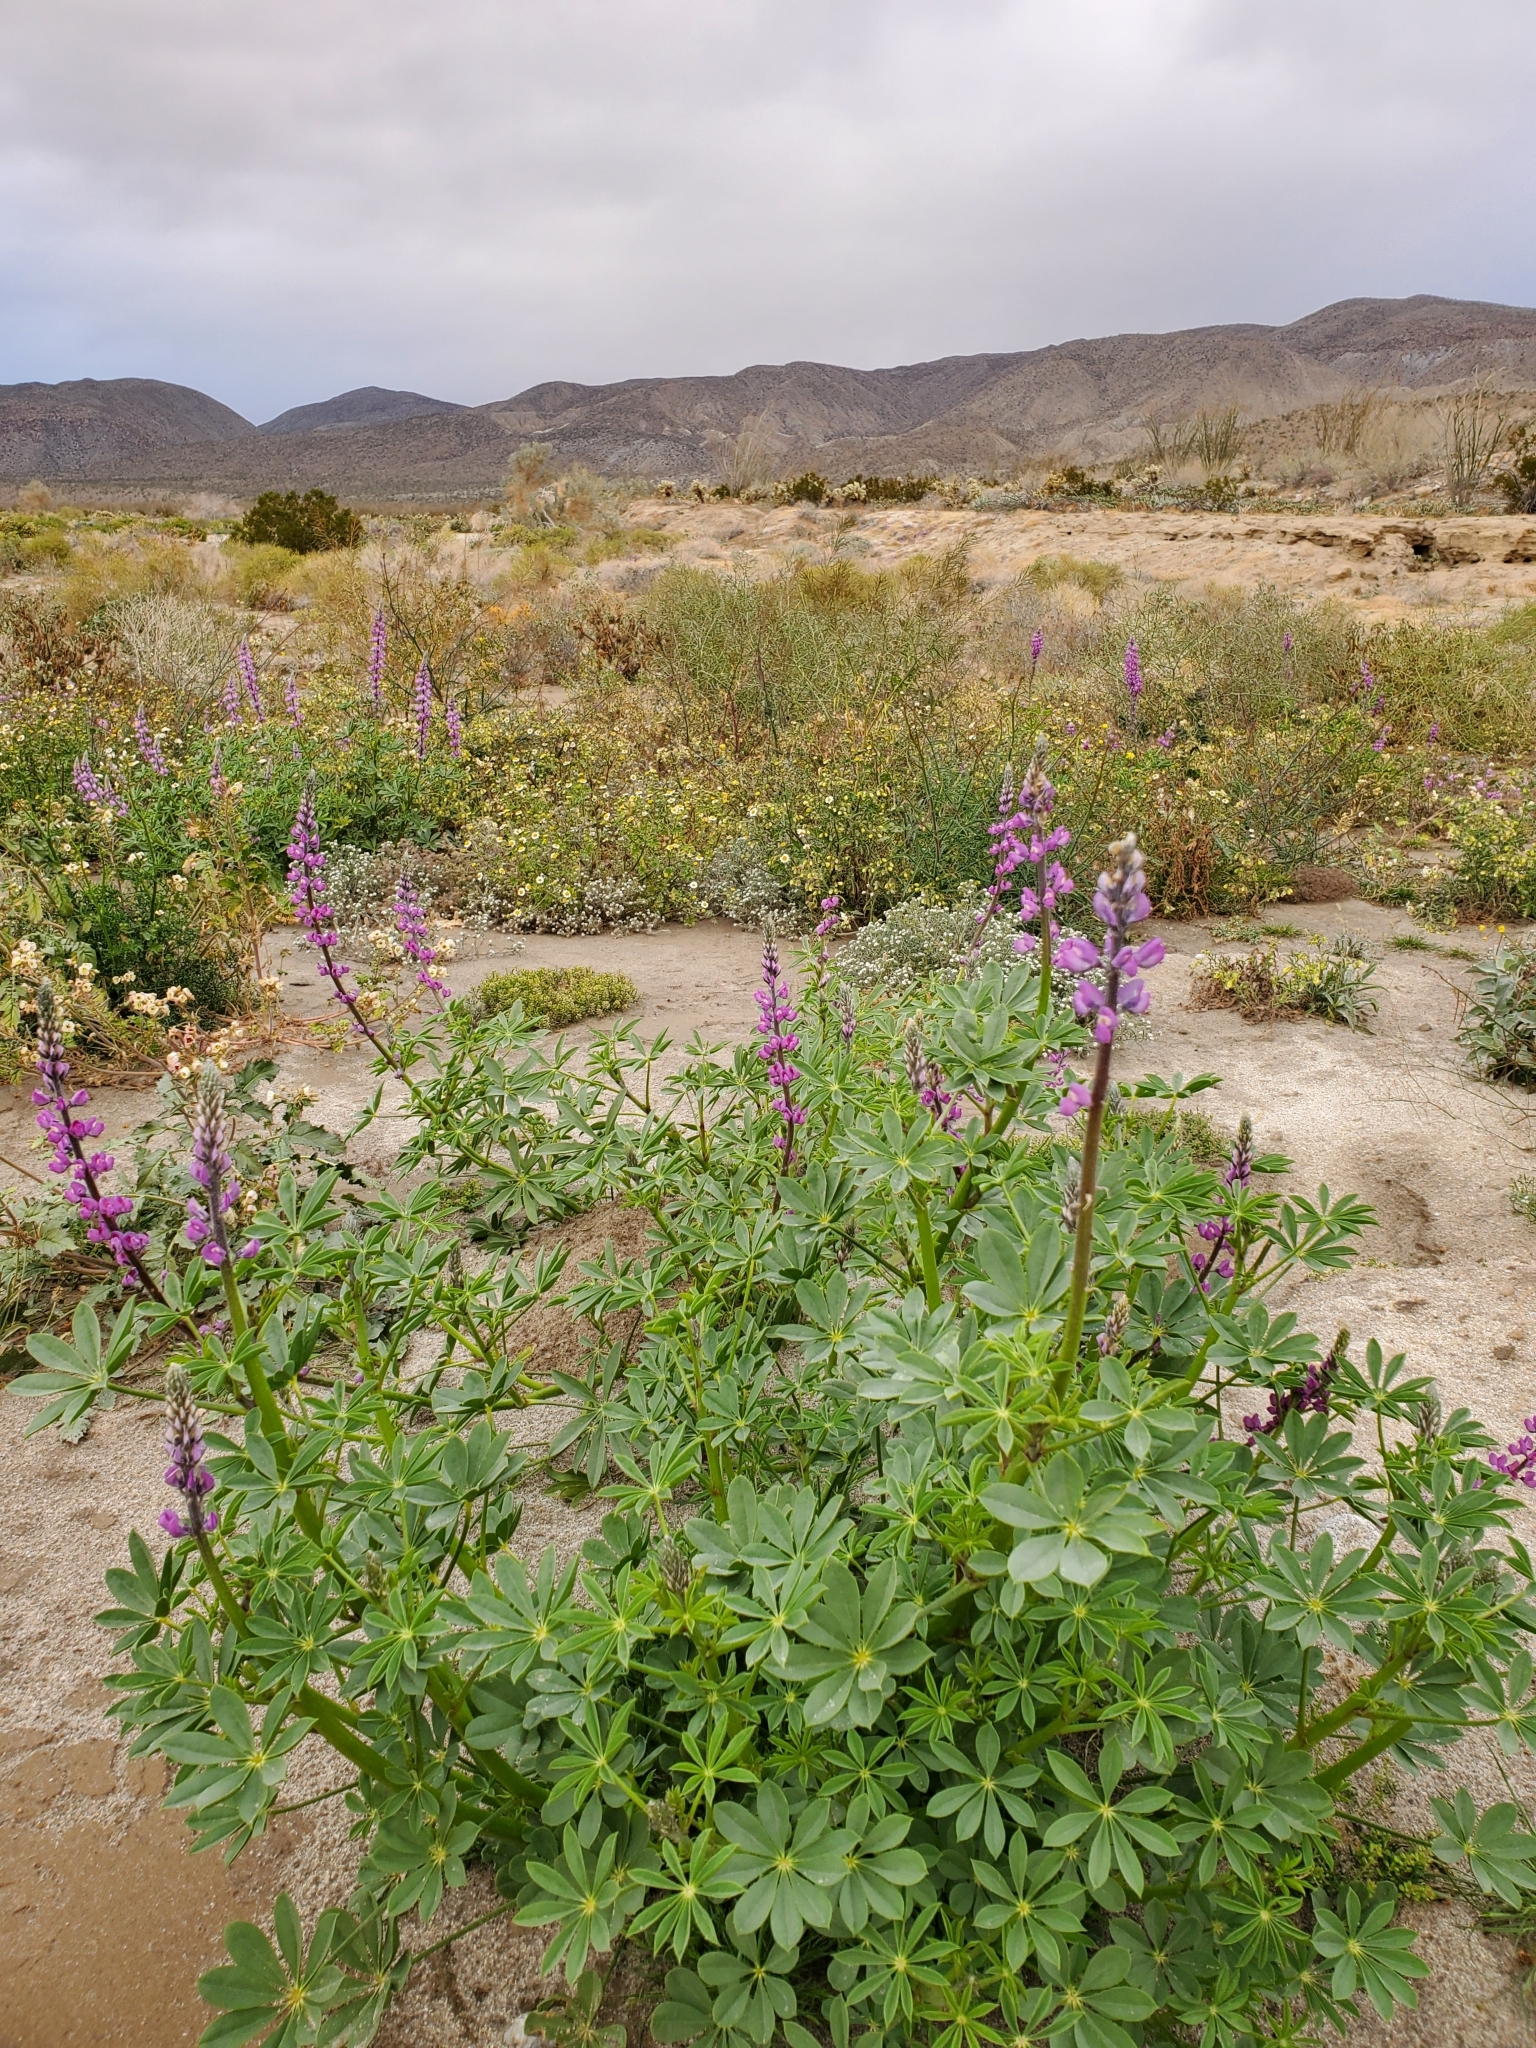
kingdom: Plantae
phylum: Tracheophyta
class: Magnoliopsida
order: Fabales
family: Fabaceae
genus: Lupinus
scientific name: Lupinus arizonicus
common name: Arizona lupine
